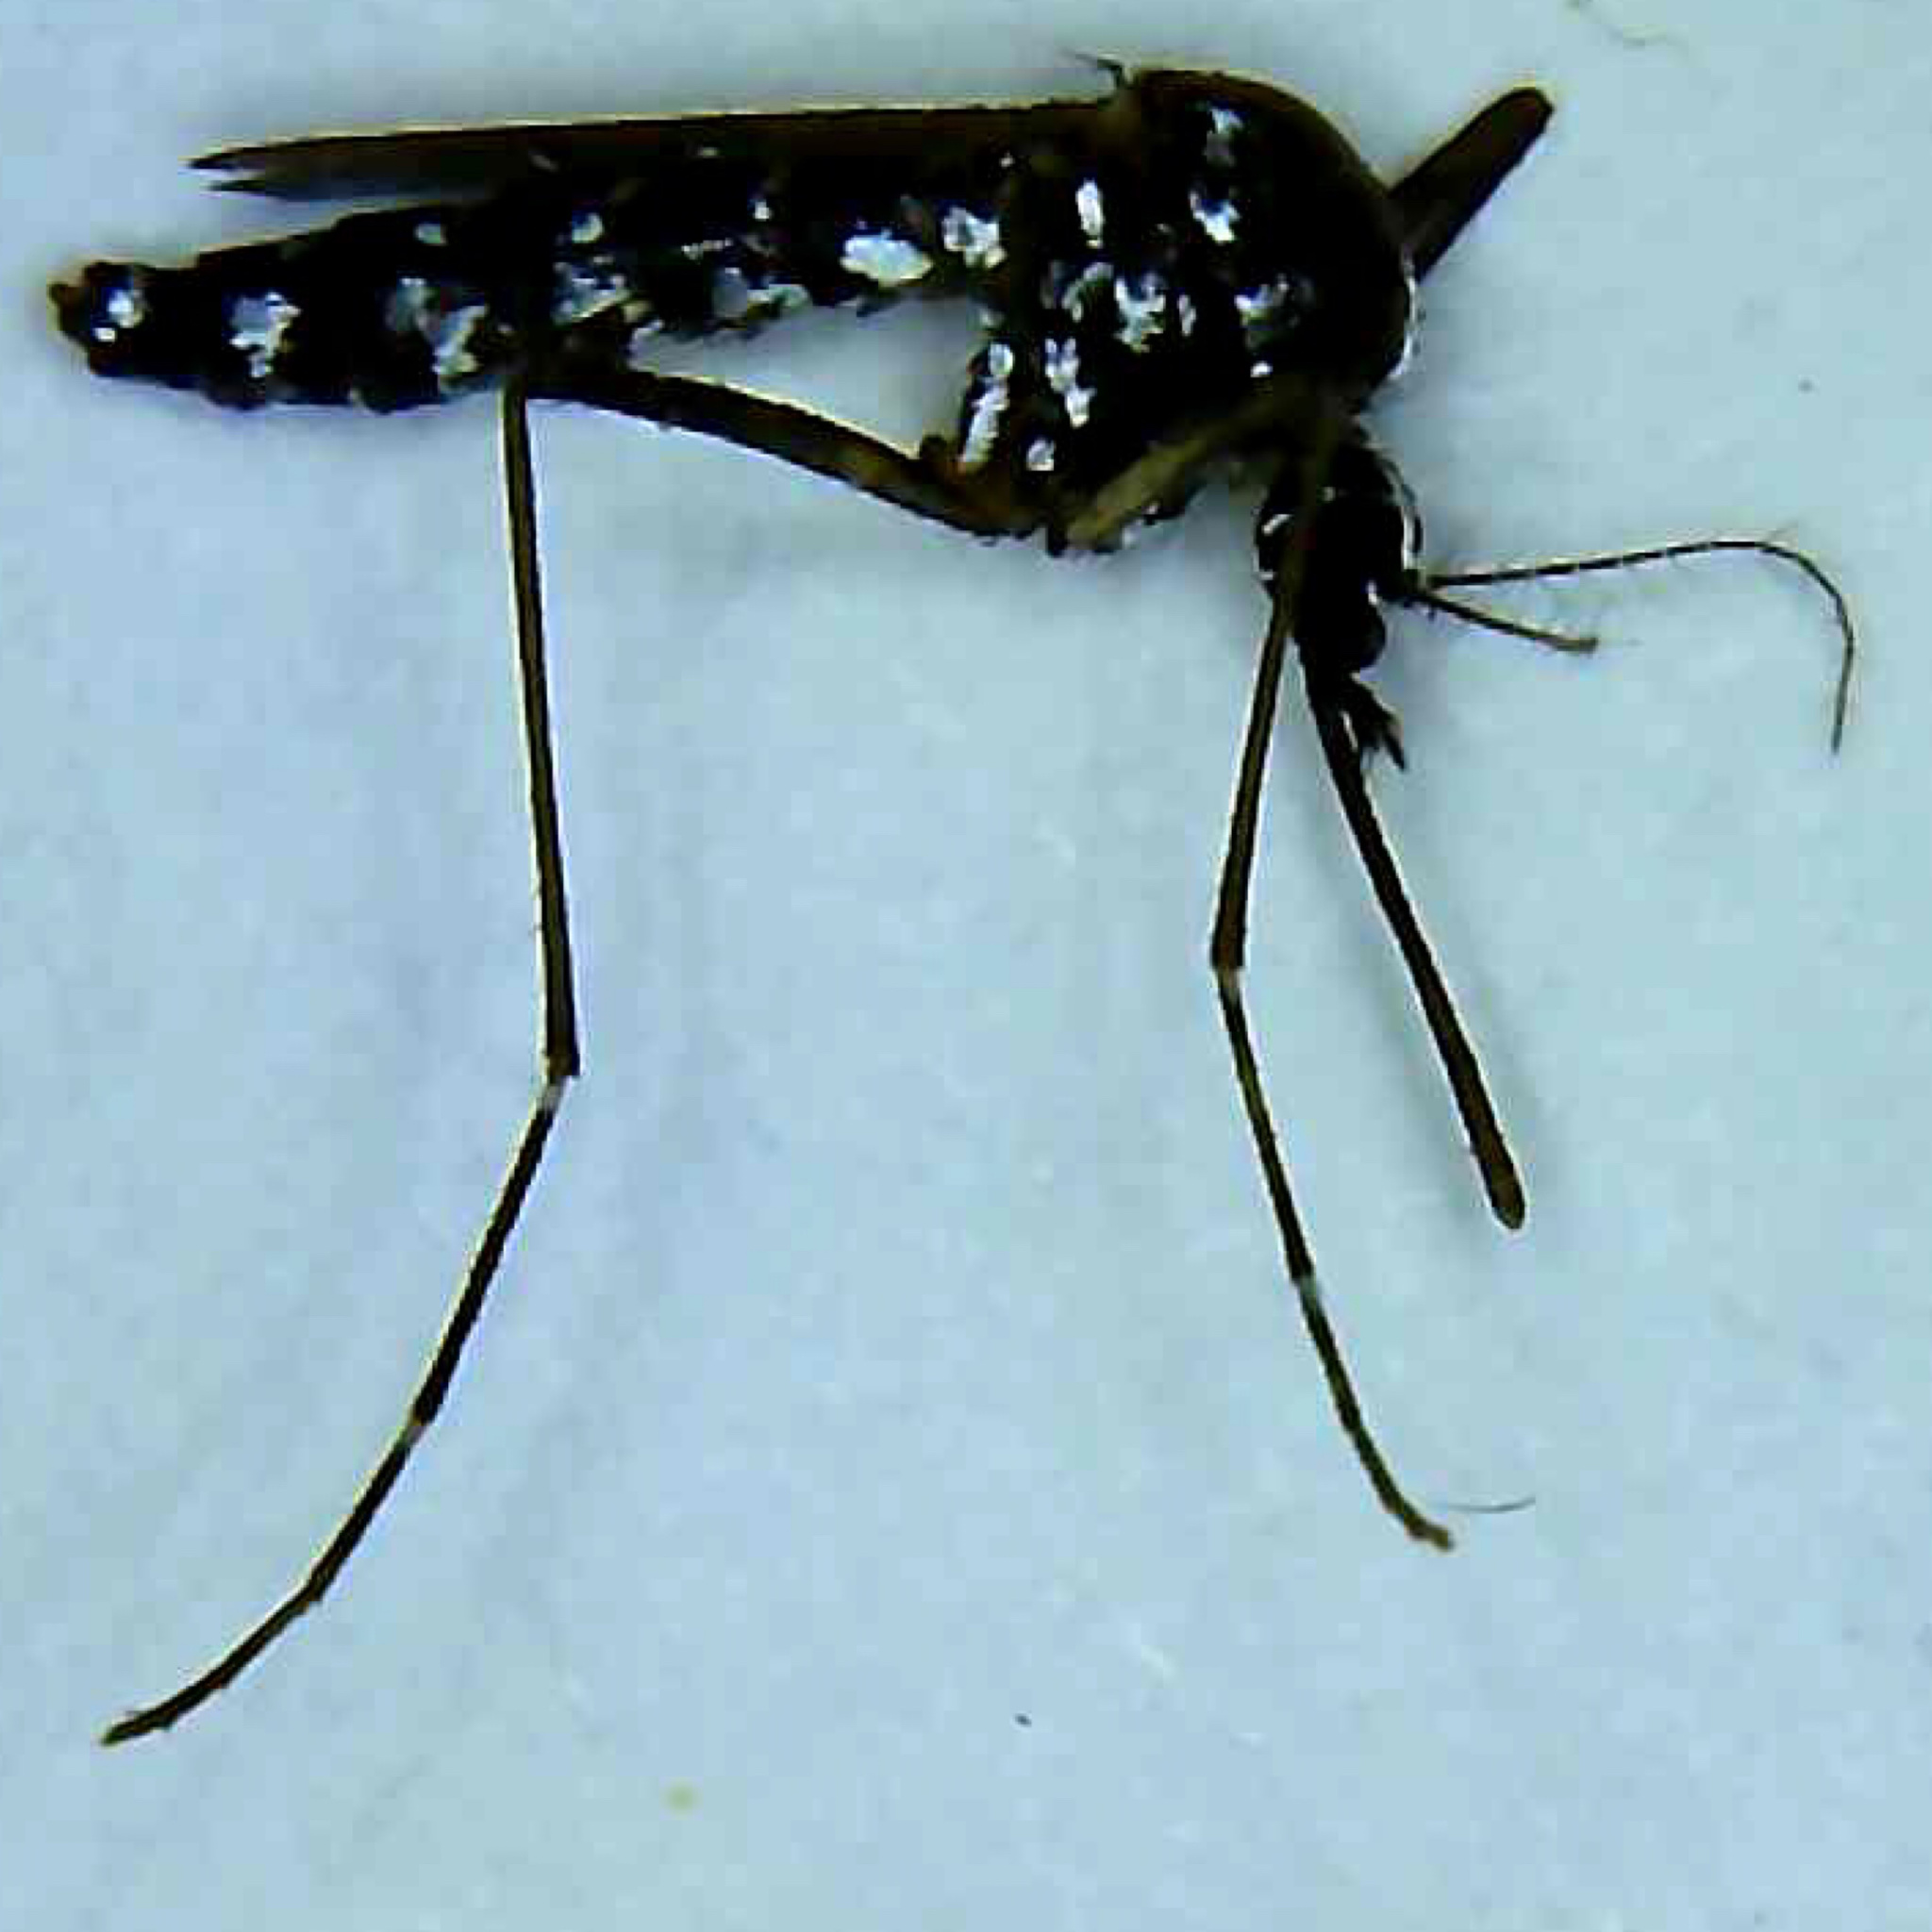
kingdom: Animalia
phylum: Arthropoda
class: Insecta
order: Diptera
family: Culicidae
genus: Aedes
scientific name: Aedes albopictus
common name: Tiger mosquito
